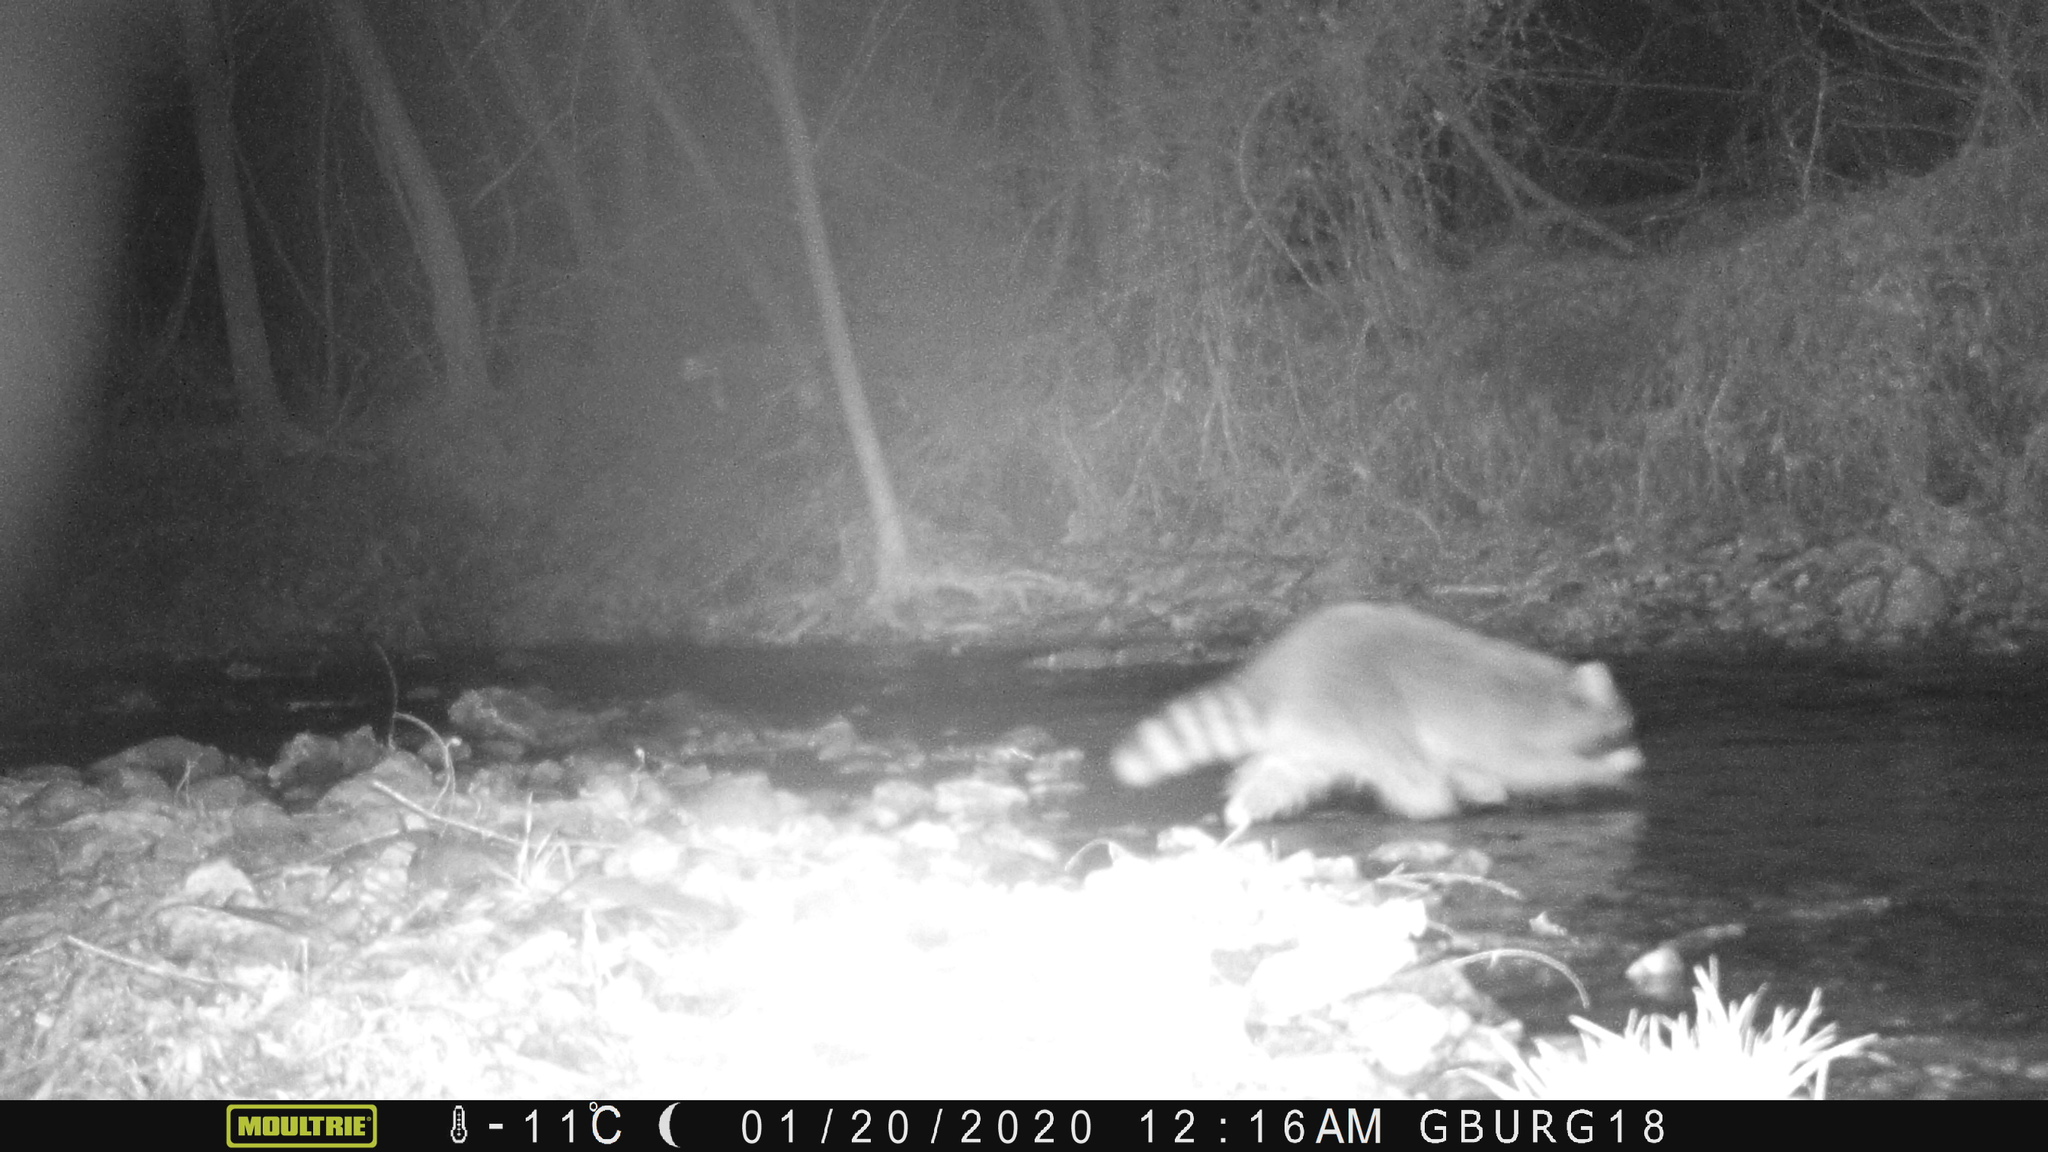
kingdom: Animalia
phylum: Chordata
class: Mammalia
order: Carnivora
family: Procyonidae
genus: Procyon
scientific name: Procyon lotor
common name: Raccoon
